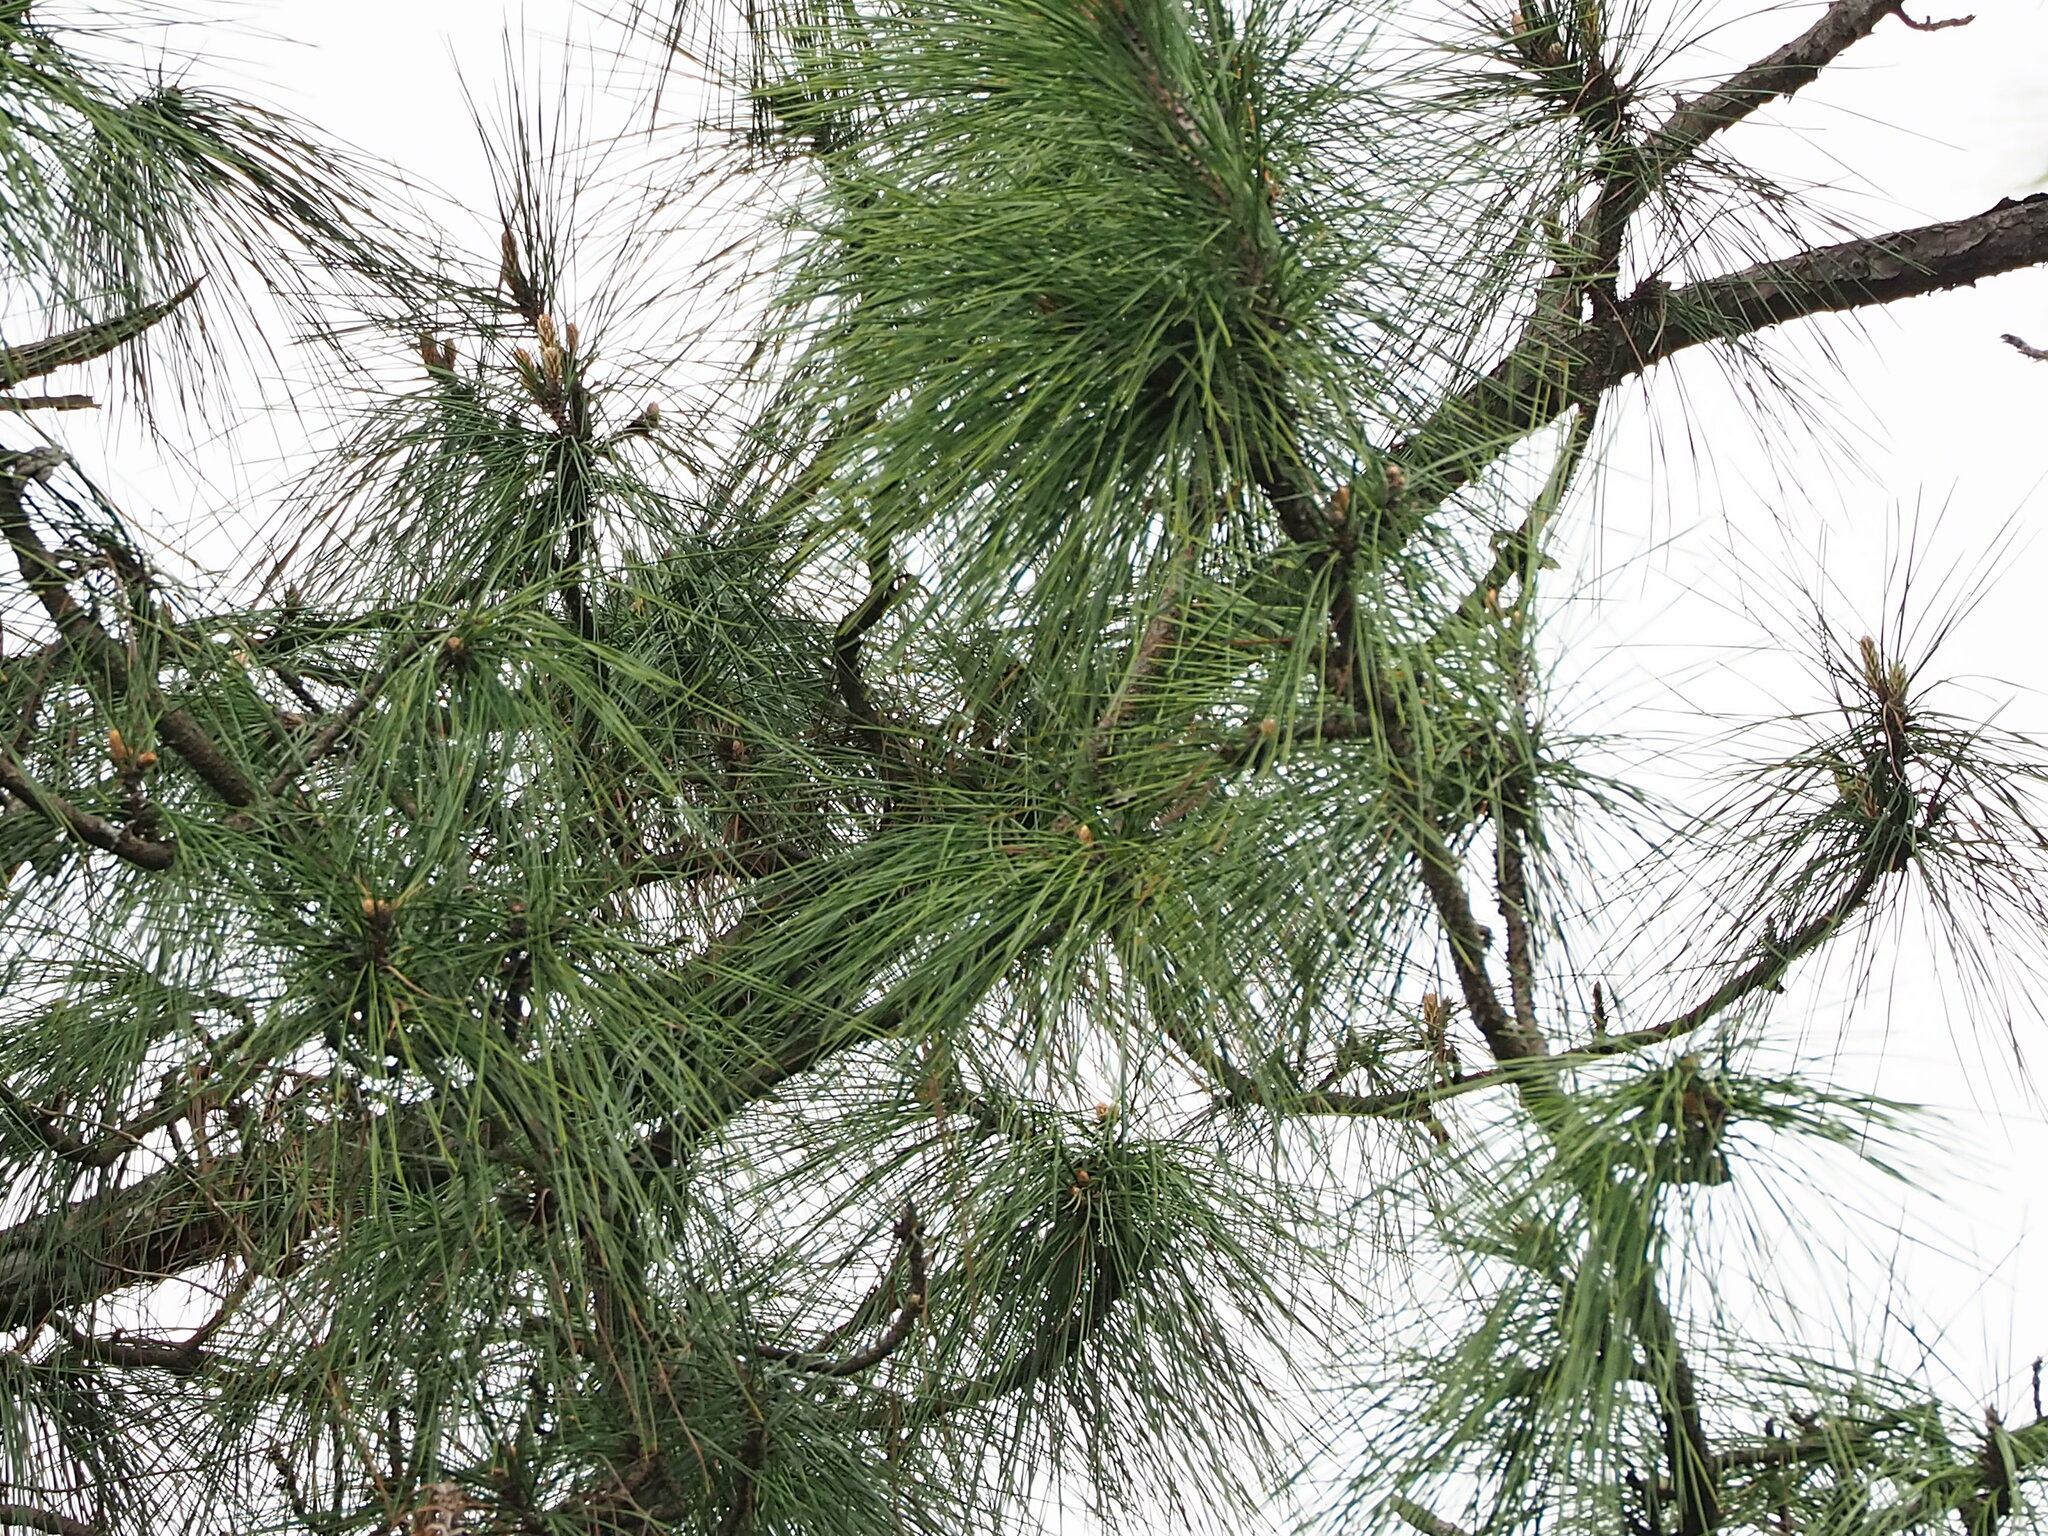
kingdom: Plantae
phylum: Tracheophyta
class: Pinopsida
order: Pinales
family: Pinaceae
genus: Pinus
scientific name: Pinus taiwanensis
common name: Formosa pine
